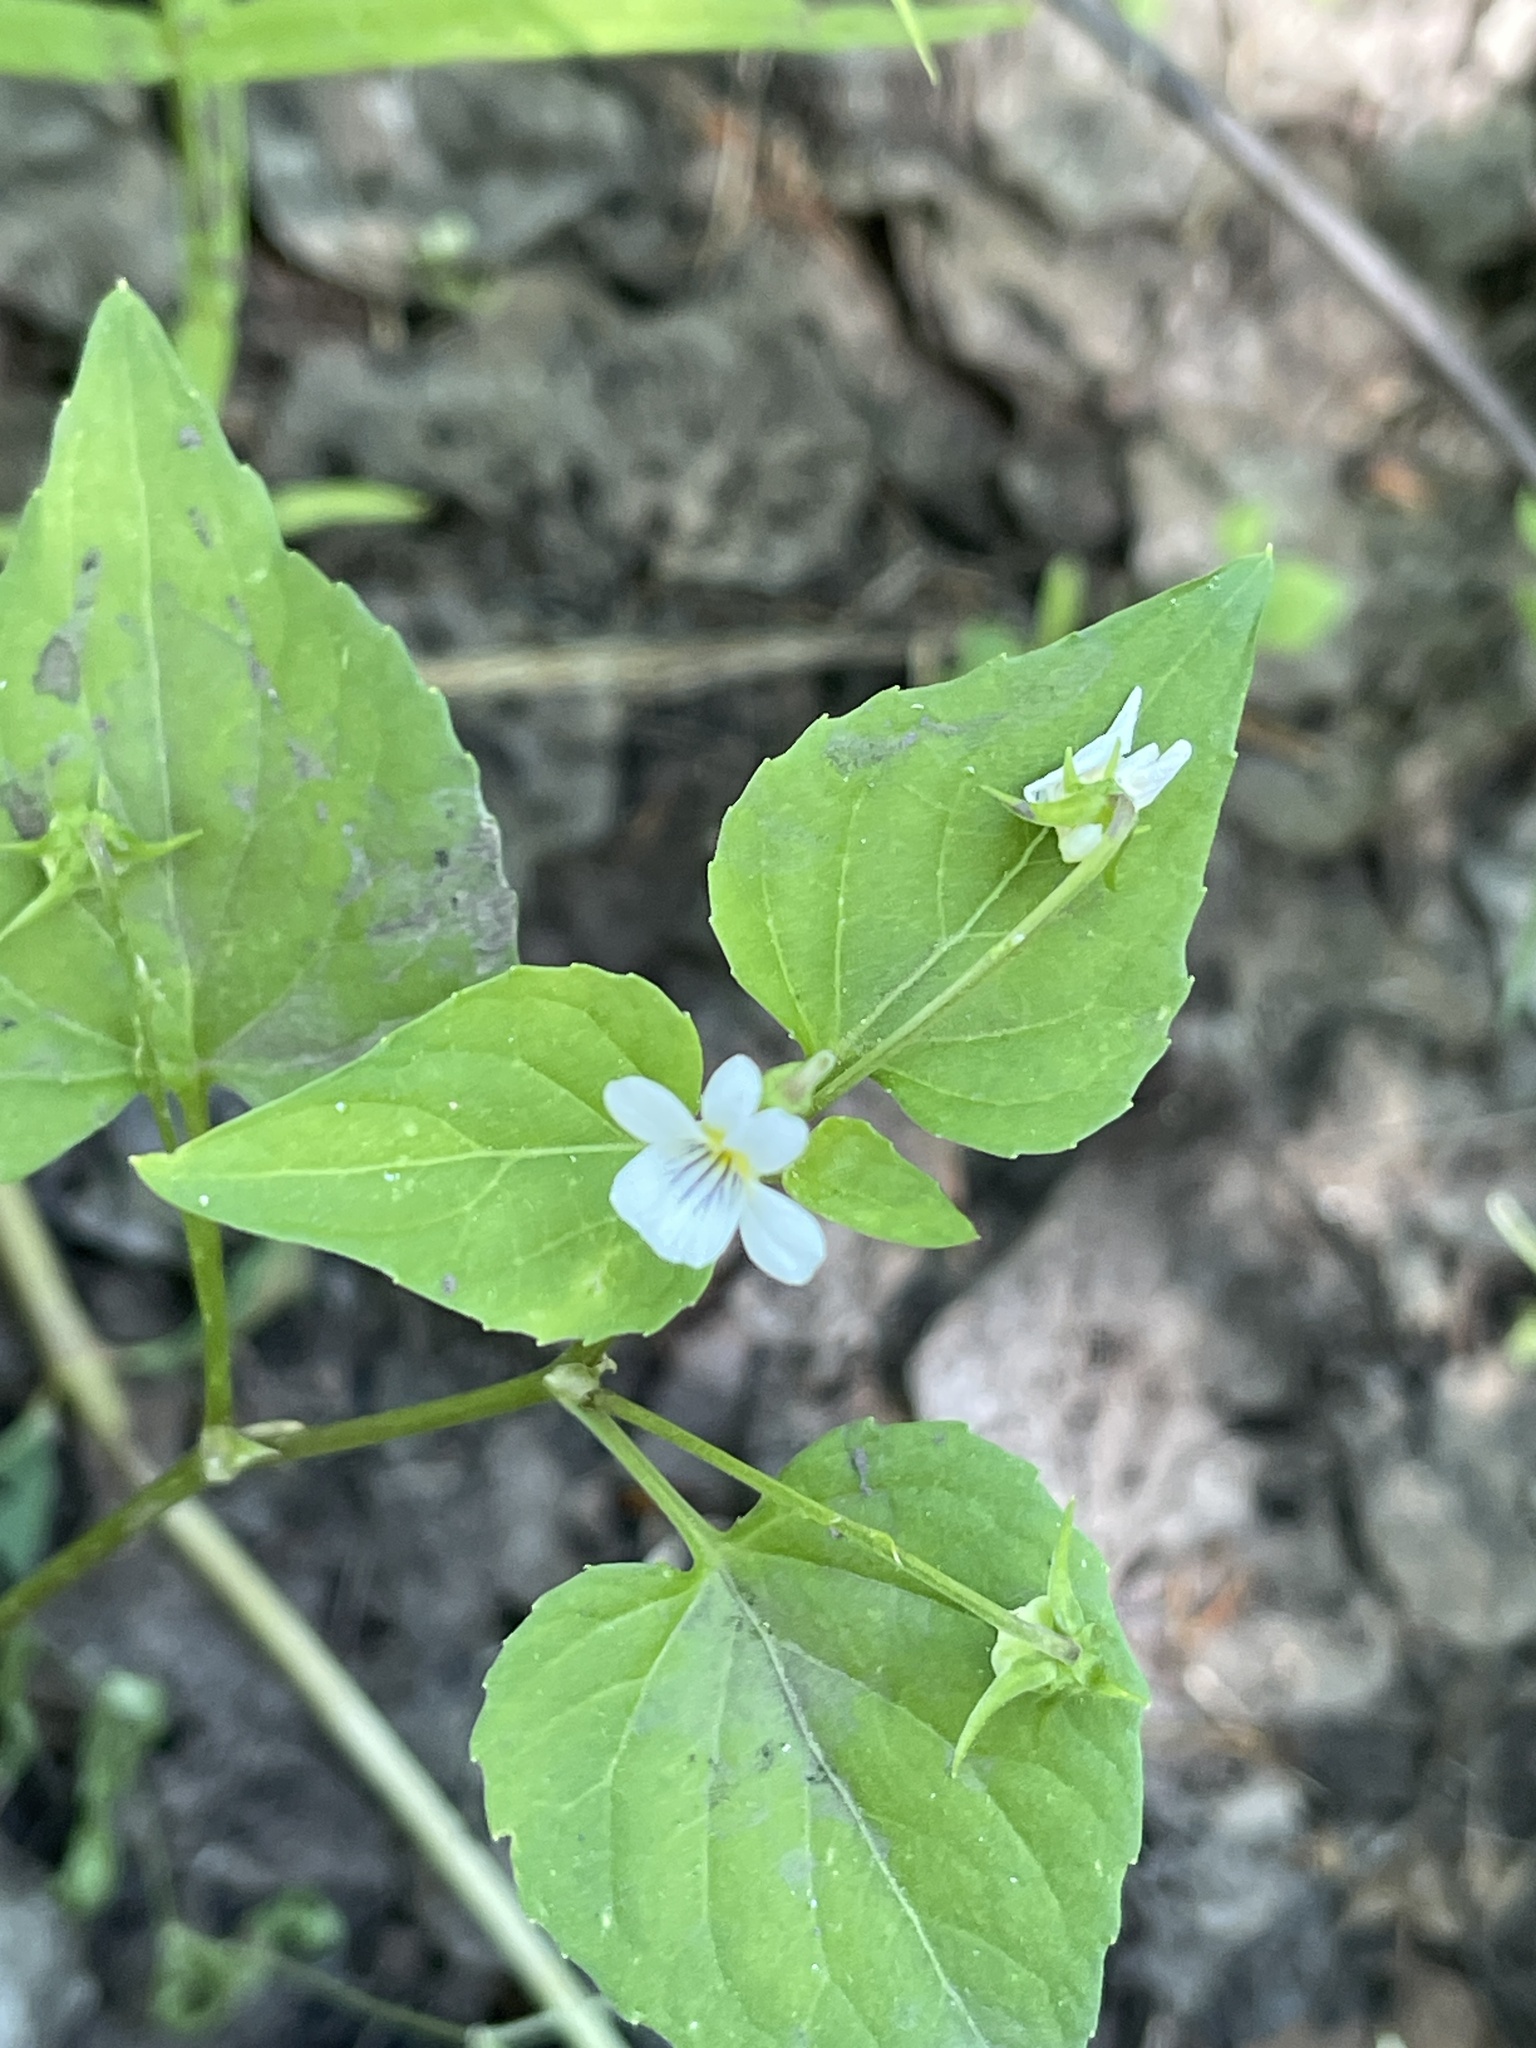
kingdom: Plantae
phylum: Tracheophyta
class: Magnoliopsida
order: Malpighiales
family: Violaceae
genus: Viola
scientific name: Viola canadensis
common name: Canada violet
